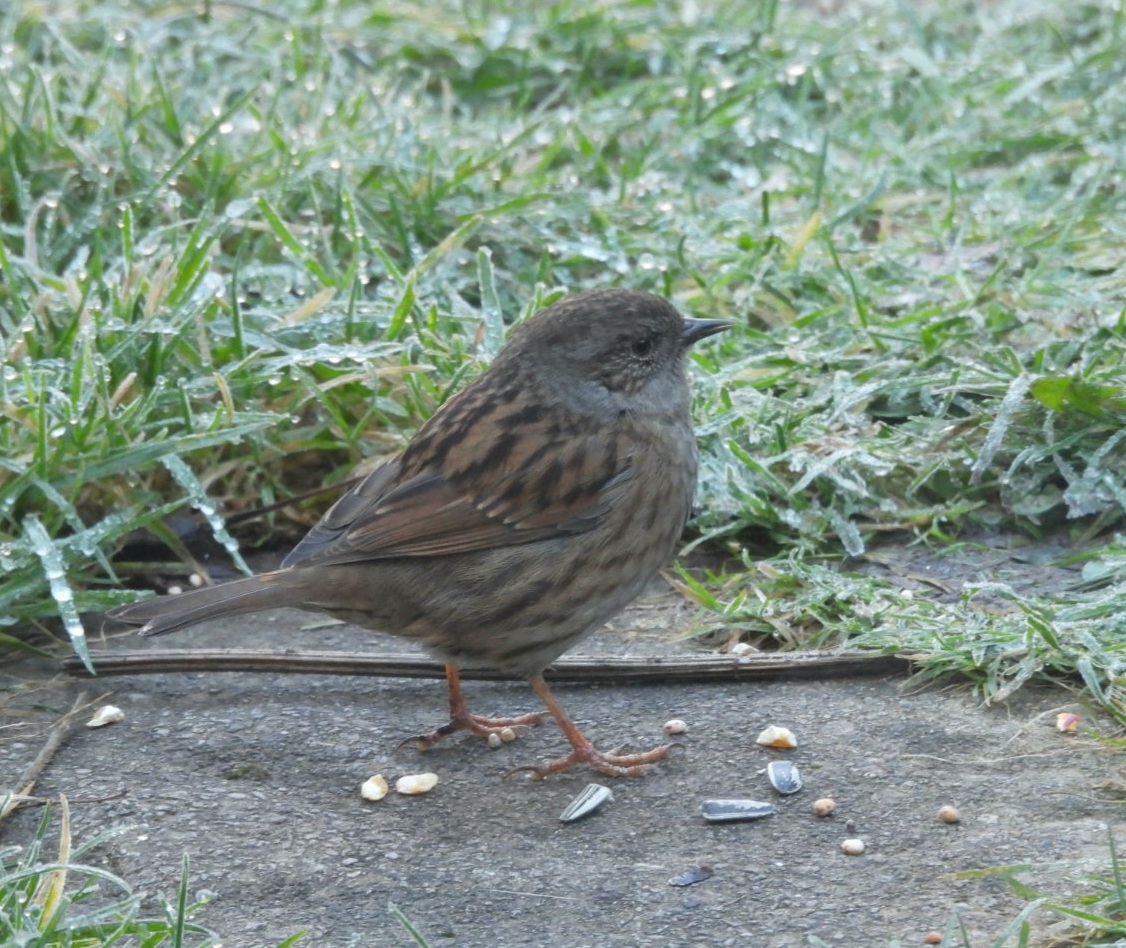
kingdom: Animalia
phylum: Chordata
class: Aves
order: Passeriformes
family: Prunellidae
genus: Prunella
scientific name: Prunella modularis
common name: Dunnock
